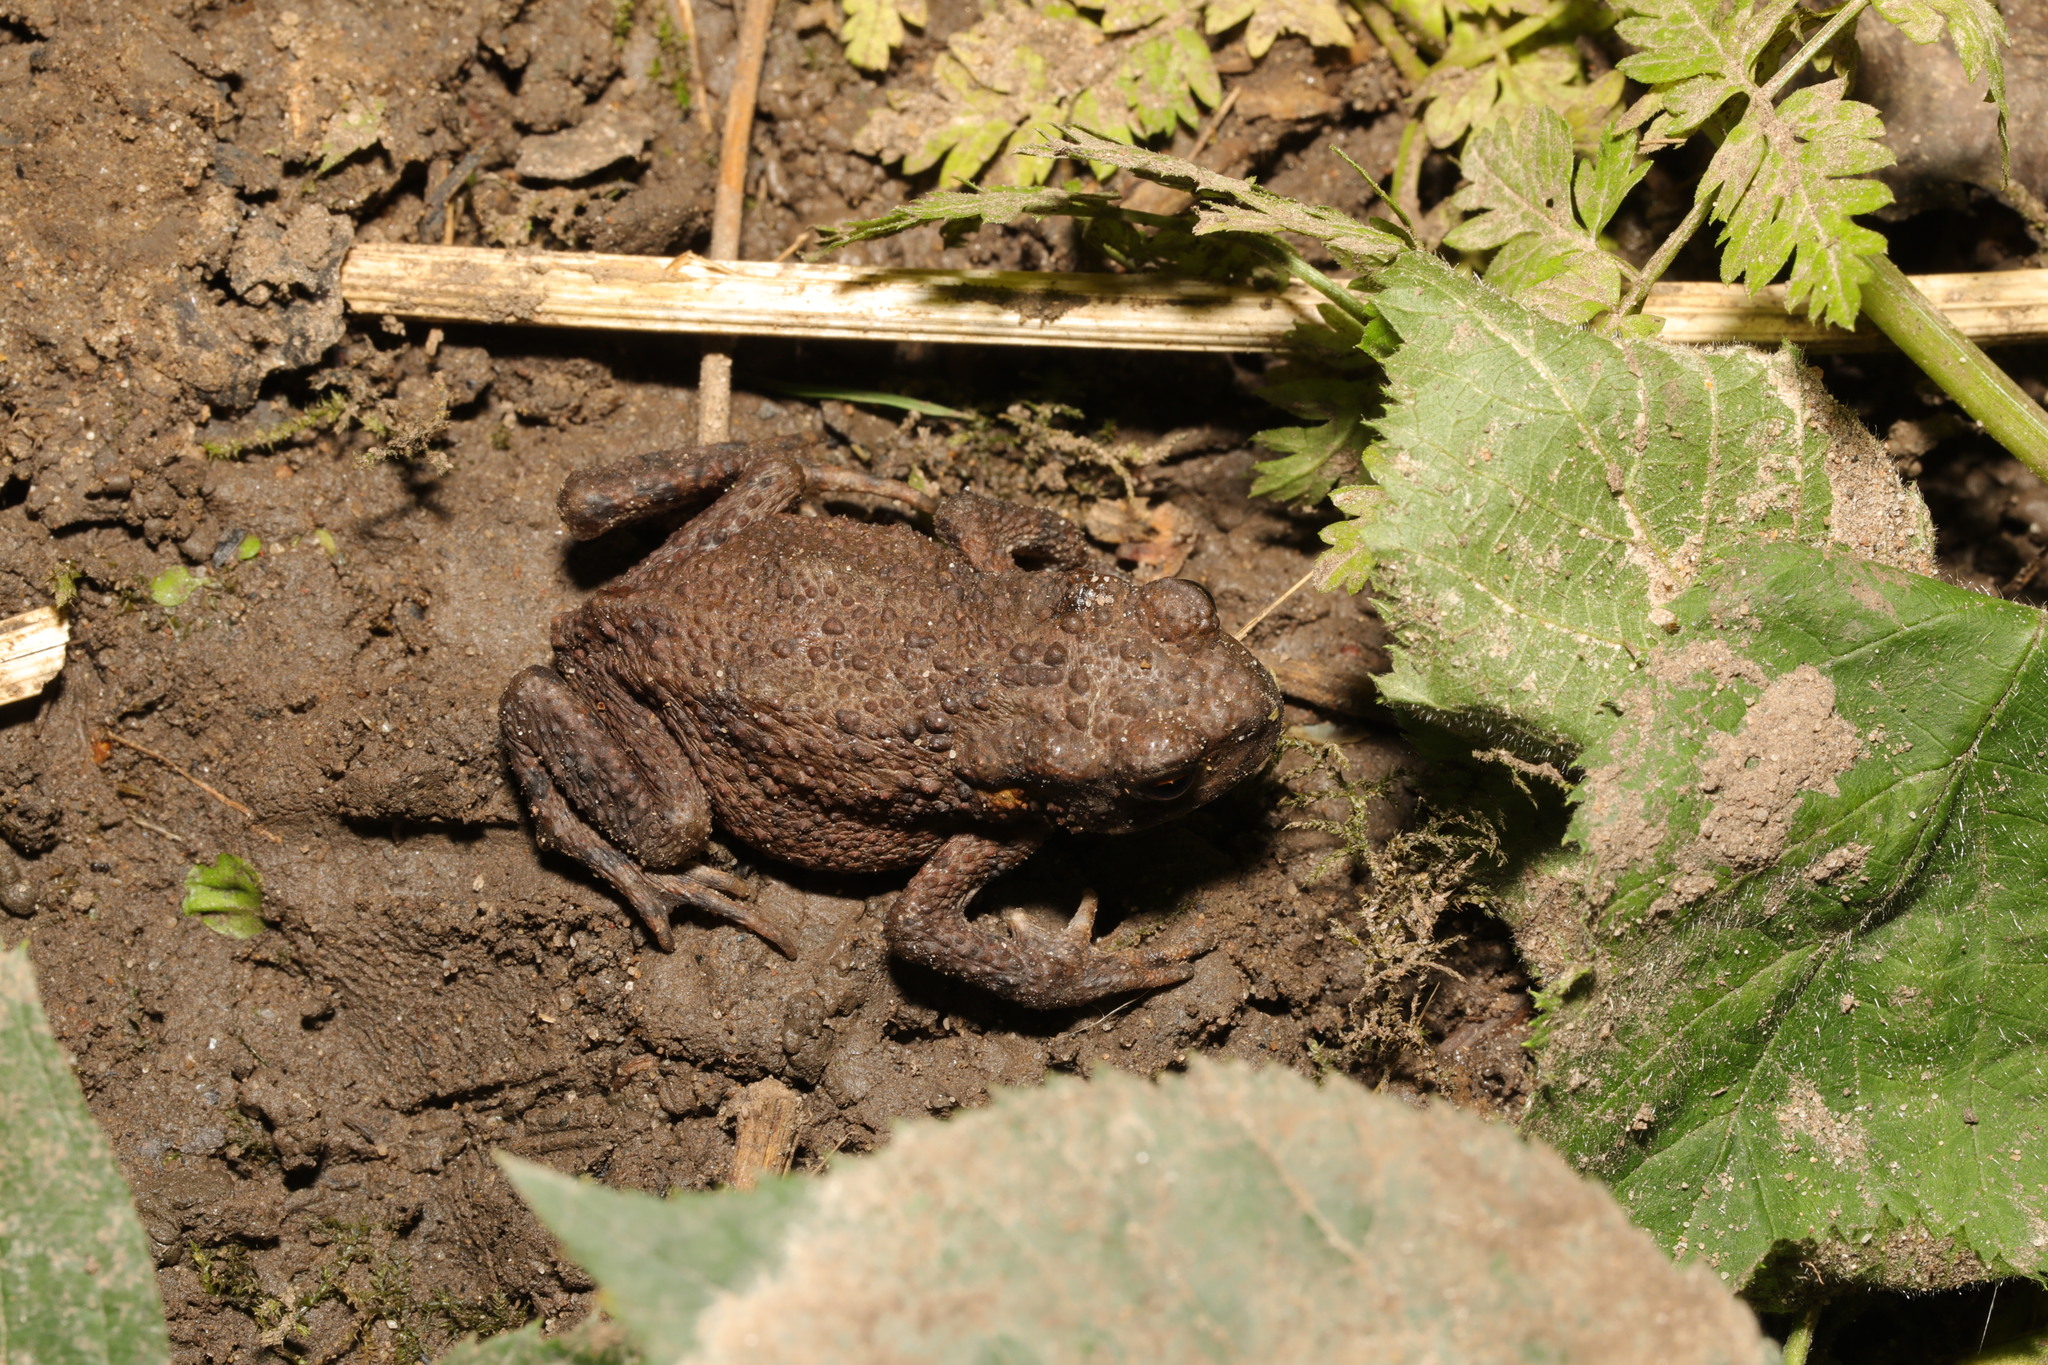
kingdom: Animalia
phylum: Chordata
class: Amphibia
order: Anura
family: Bufonidae
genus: Bufo
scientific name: Bufo bufo
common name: Common toad
